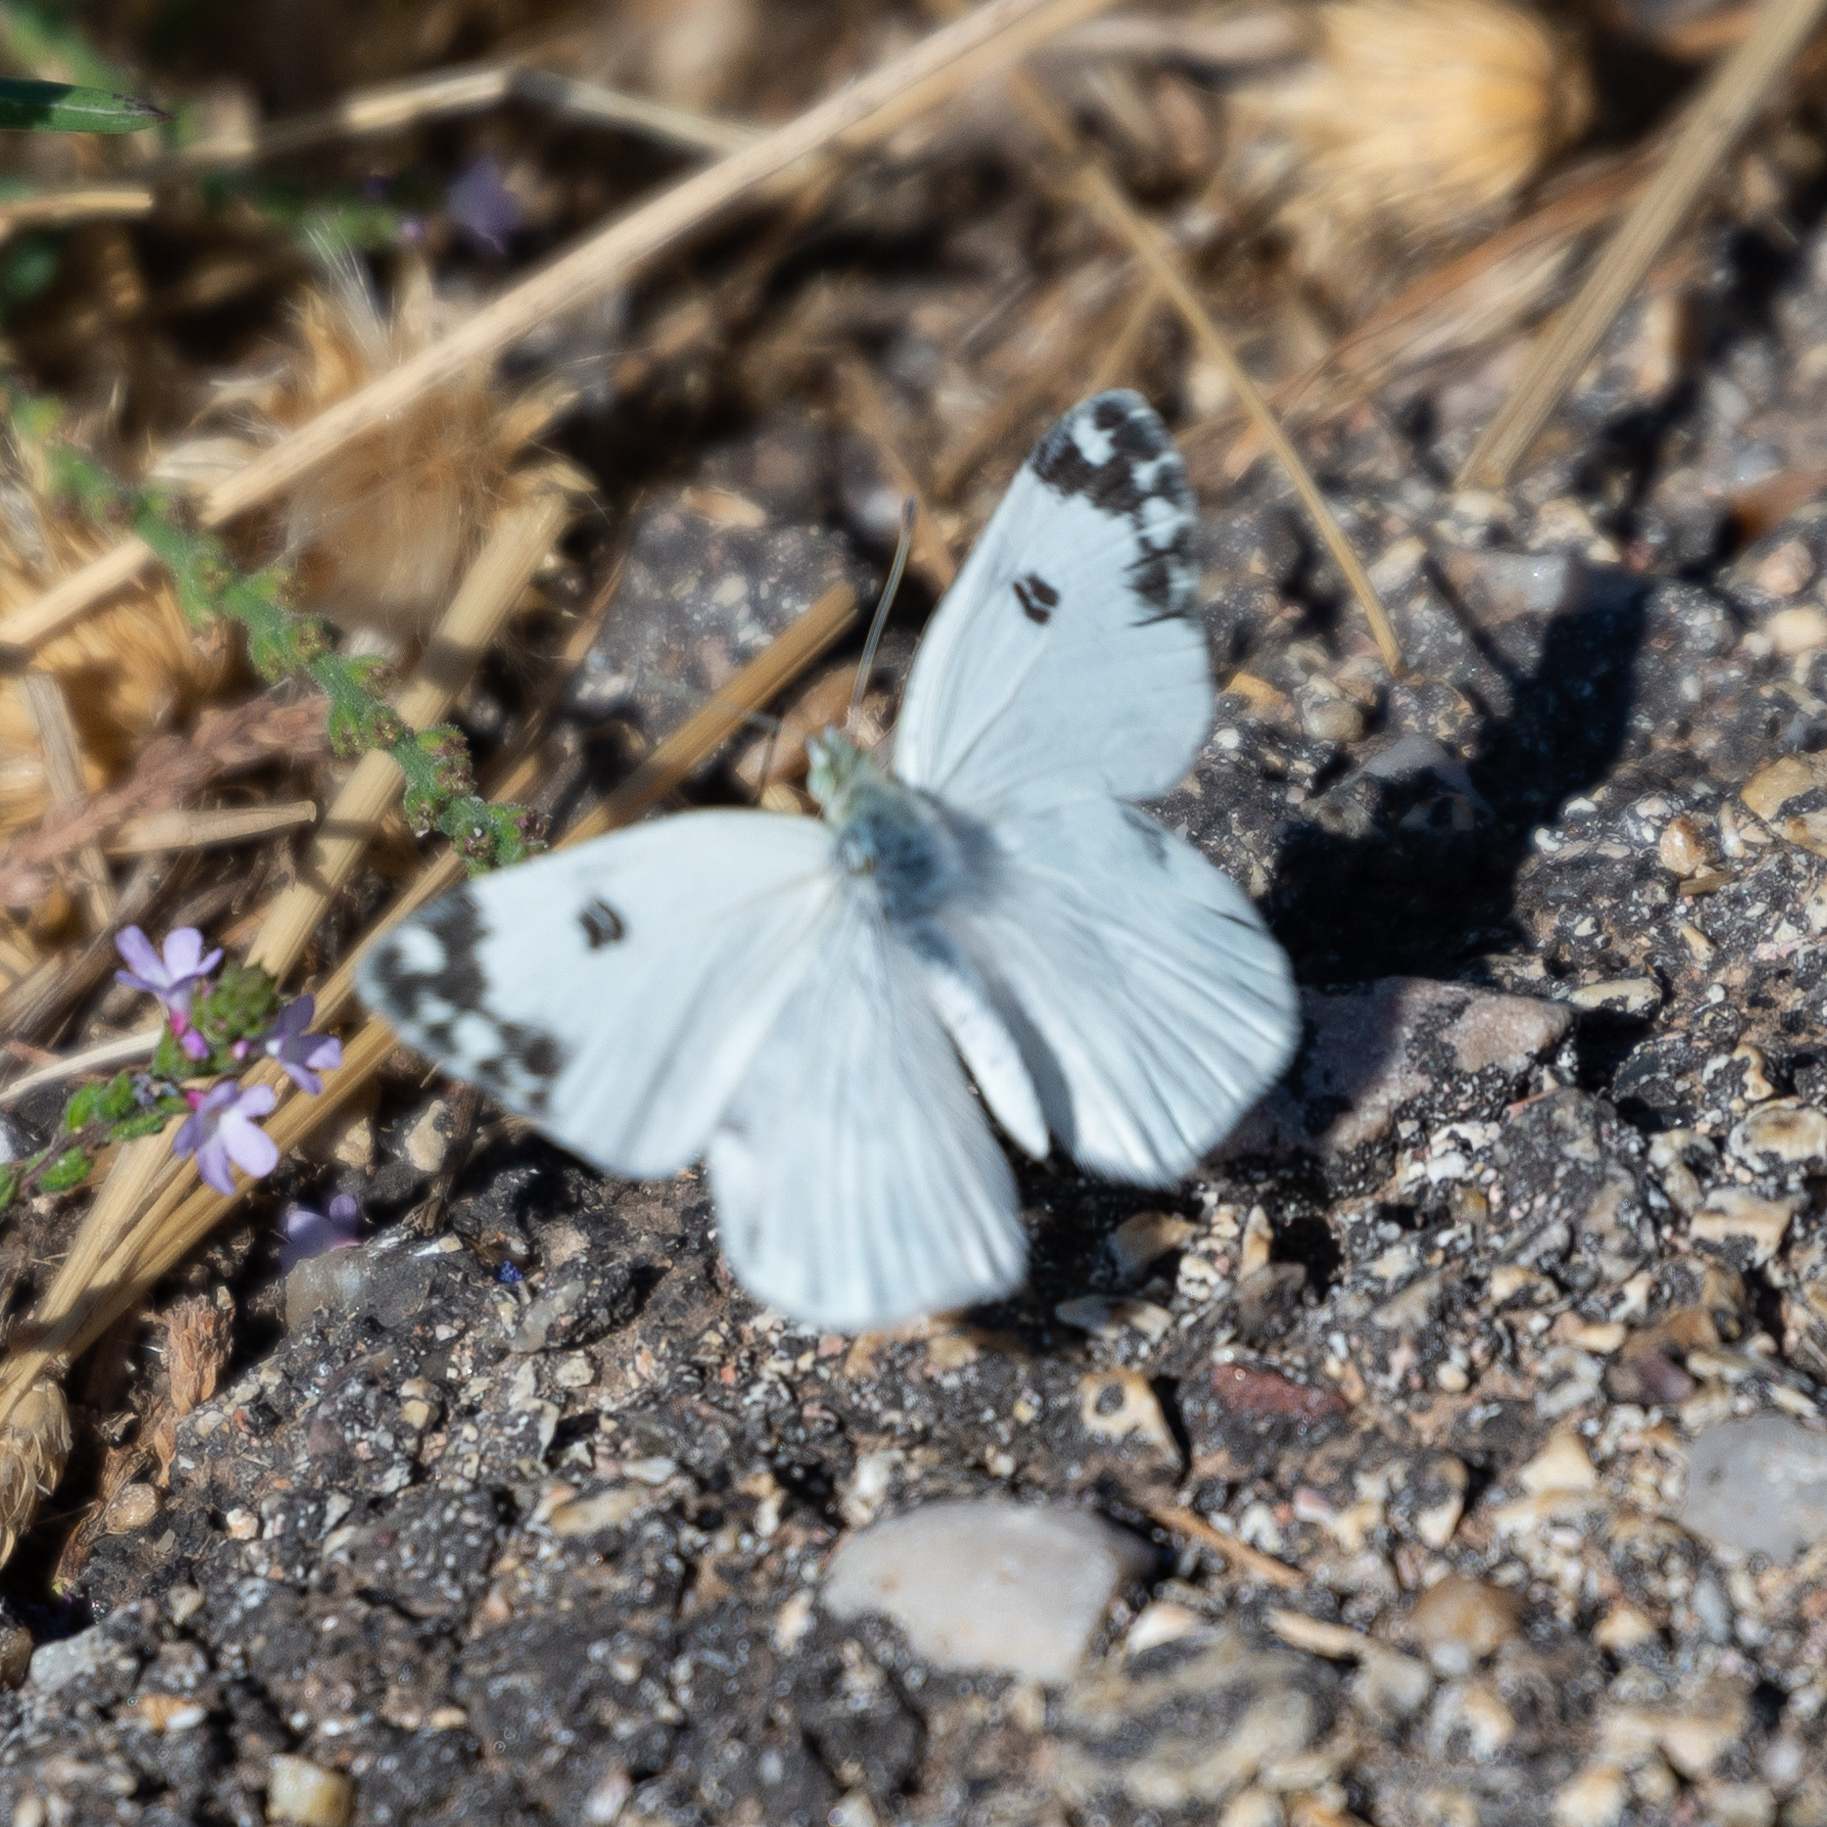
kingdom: Animalia
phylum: Arthropoda
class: Insecta
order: Lepidoptera
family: Pieridae
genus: Pontia
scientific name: Pontia daplidice
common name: Bath white
